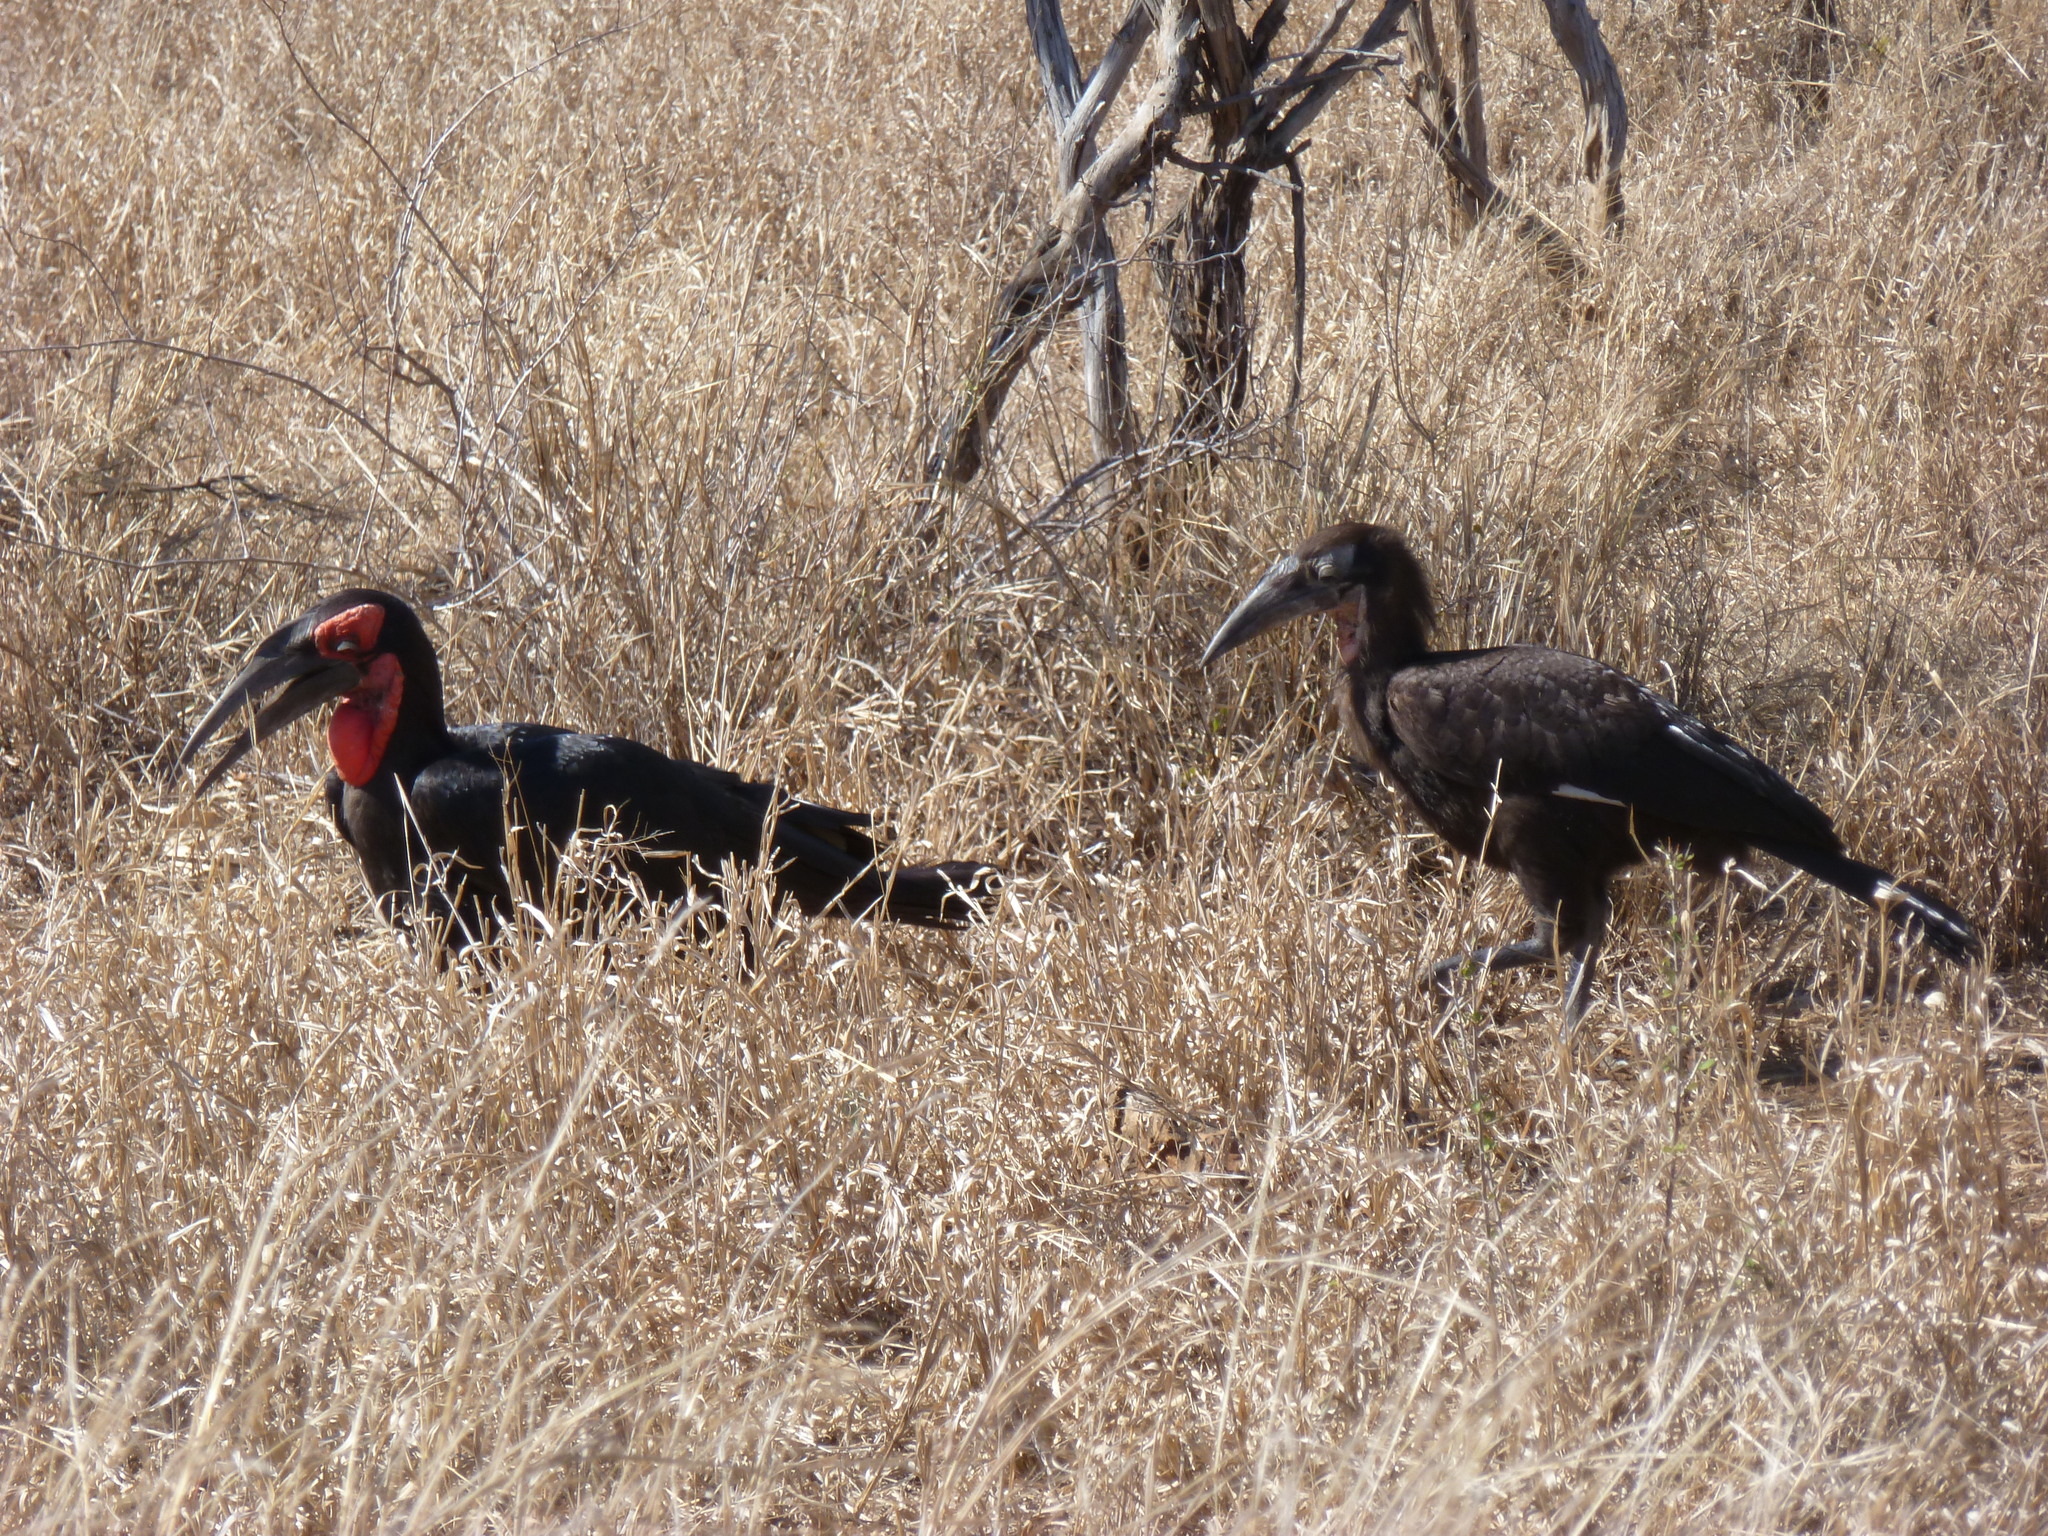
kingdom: Animalia
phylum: Chordata
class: Aves
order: Bucerotiformes
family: Bucorvidae
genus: Bucorvus
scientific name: Bucorvus leadbeateri
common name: Southern ground-hornbill
